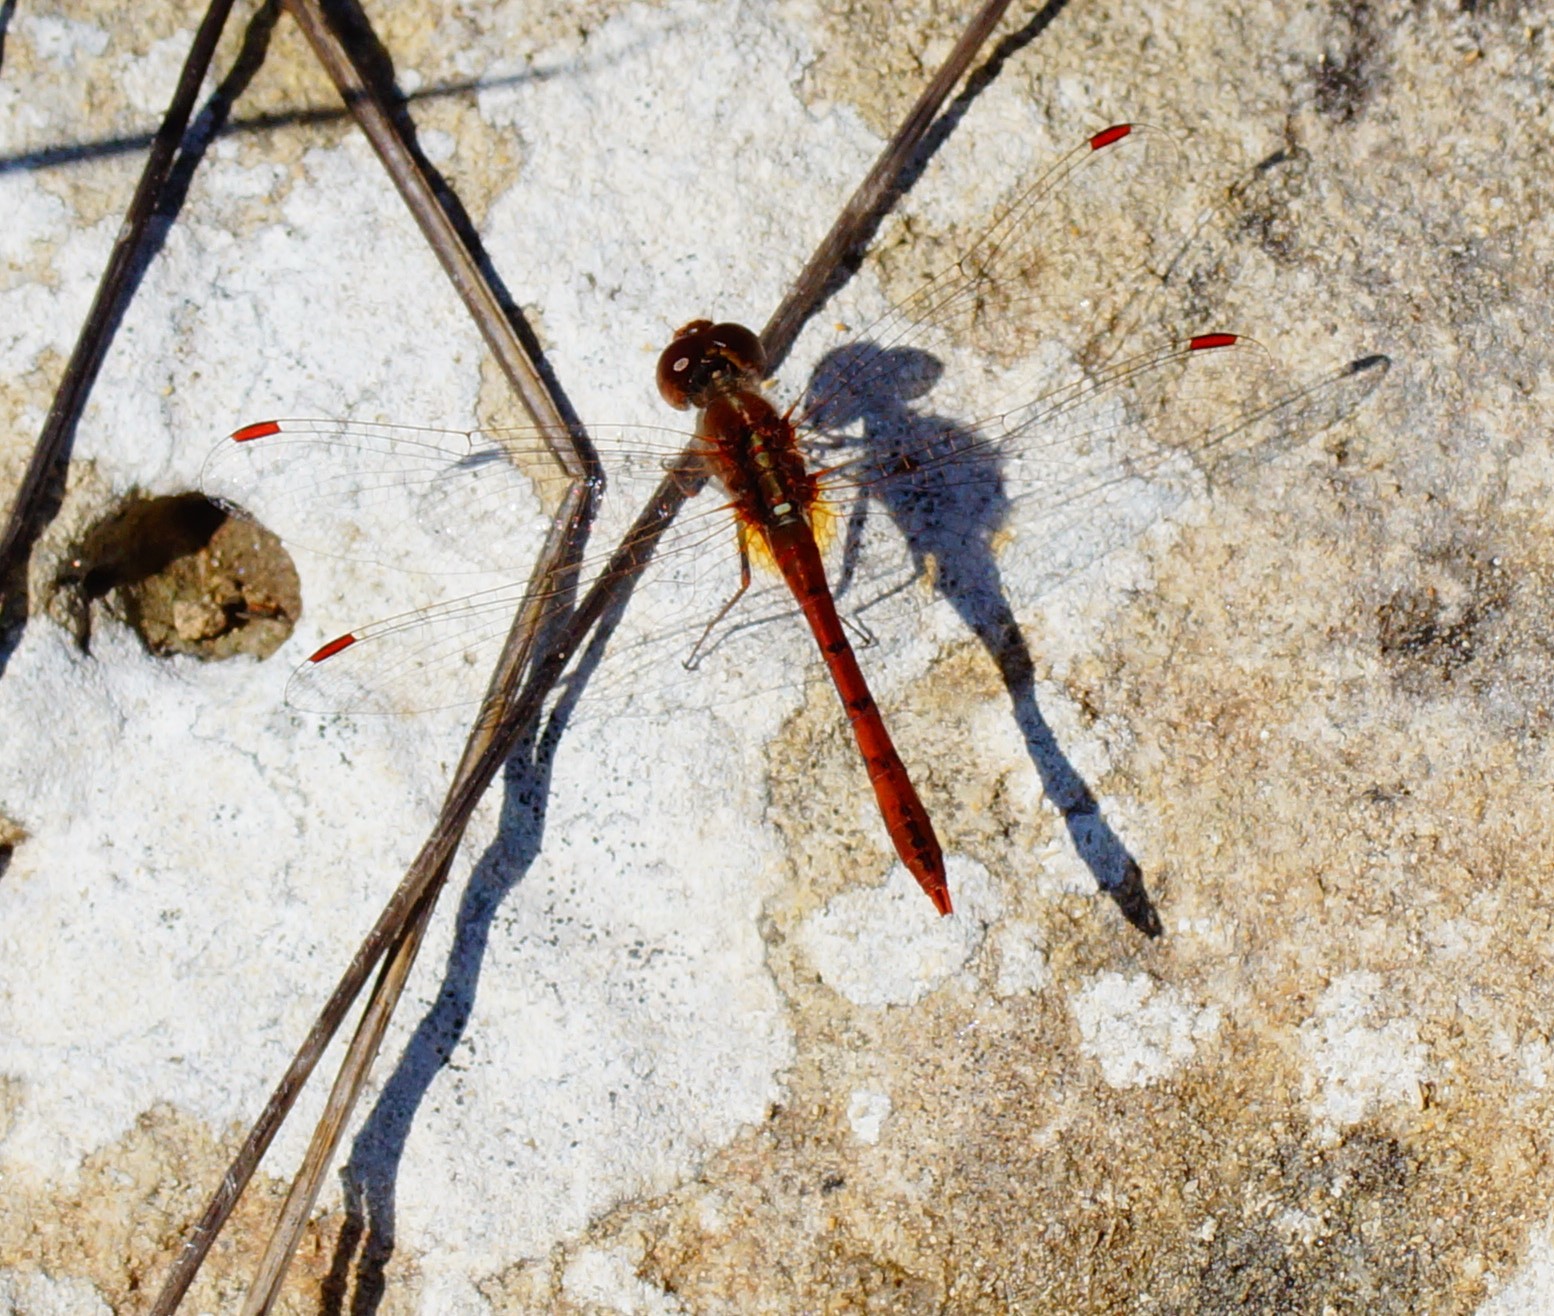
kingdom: Animalia
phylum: Arthropoda
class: Insecta
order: Odonata
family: Libellulidae
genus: Diplacodes
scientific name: Diplacodes bipunctata
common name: Red percher dragonfly
